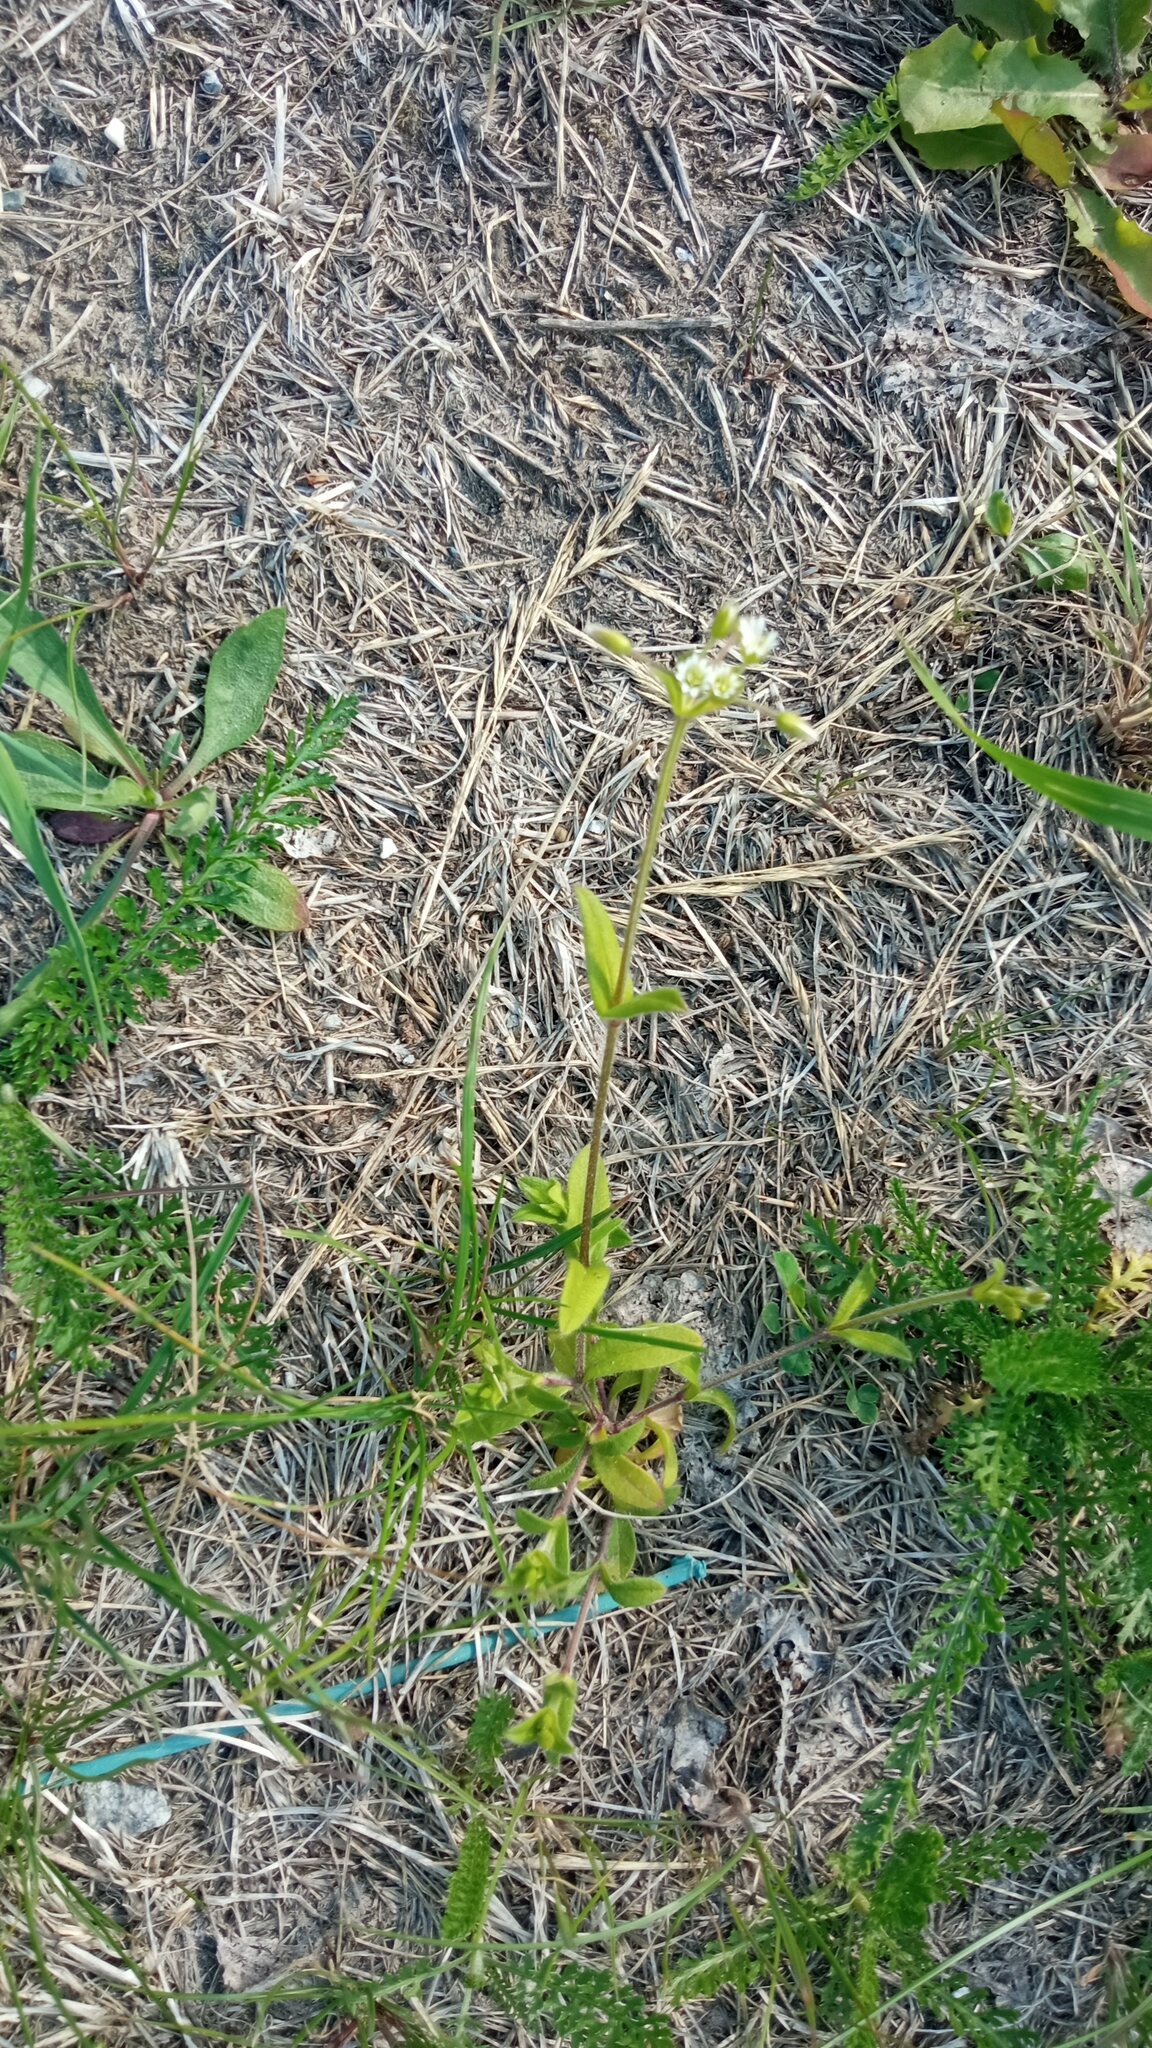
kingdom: Plantae
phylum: Tracheophyta
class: Magnoliopsida
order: Caryophyllales
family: Caryophyllaceae
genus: Cerastium
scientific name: Cerastium holosteoides
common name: Big chickweed
